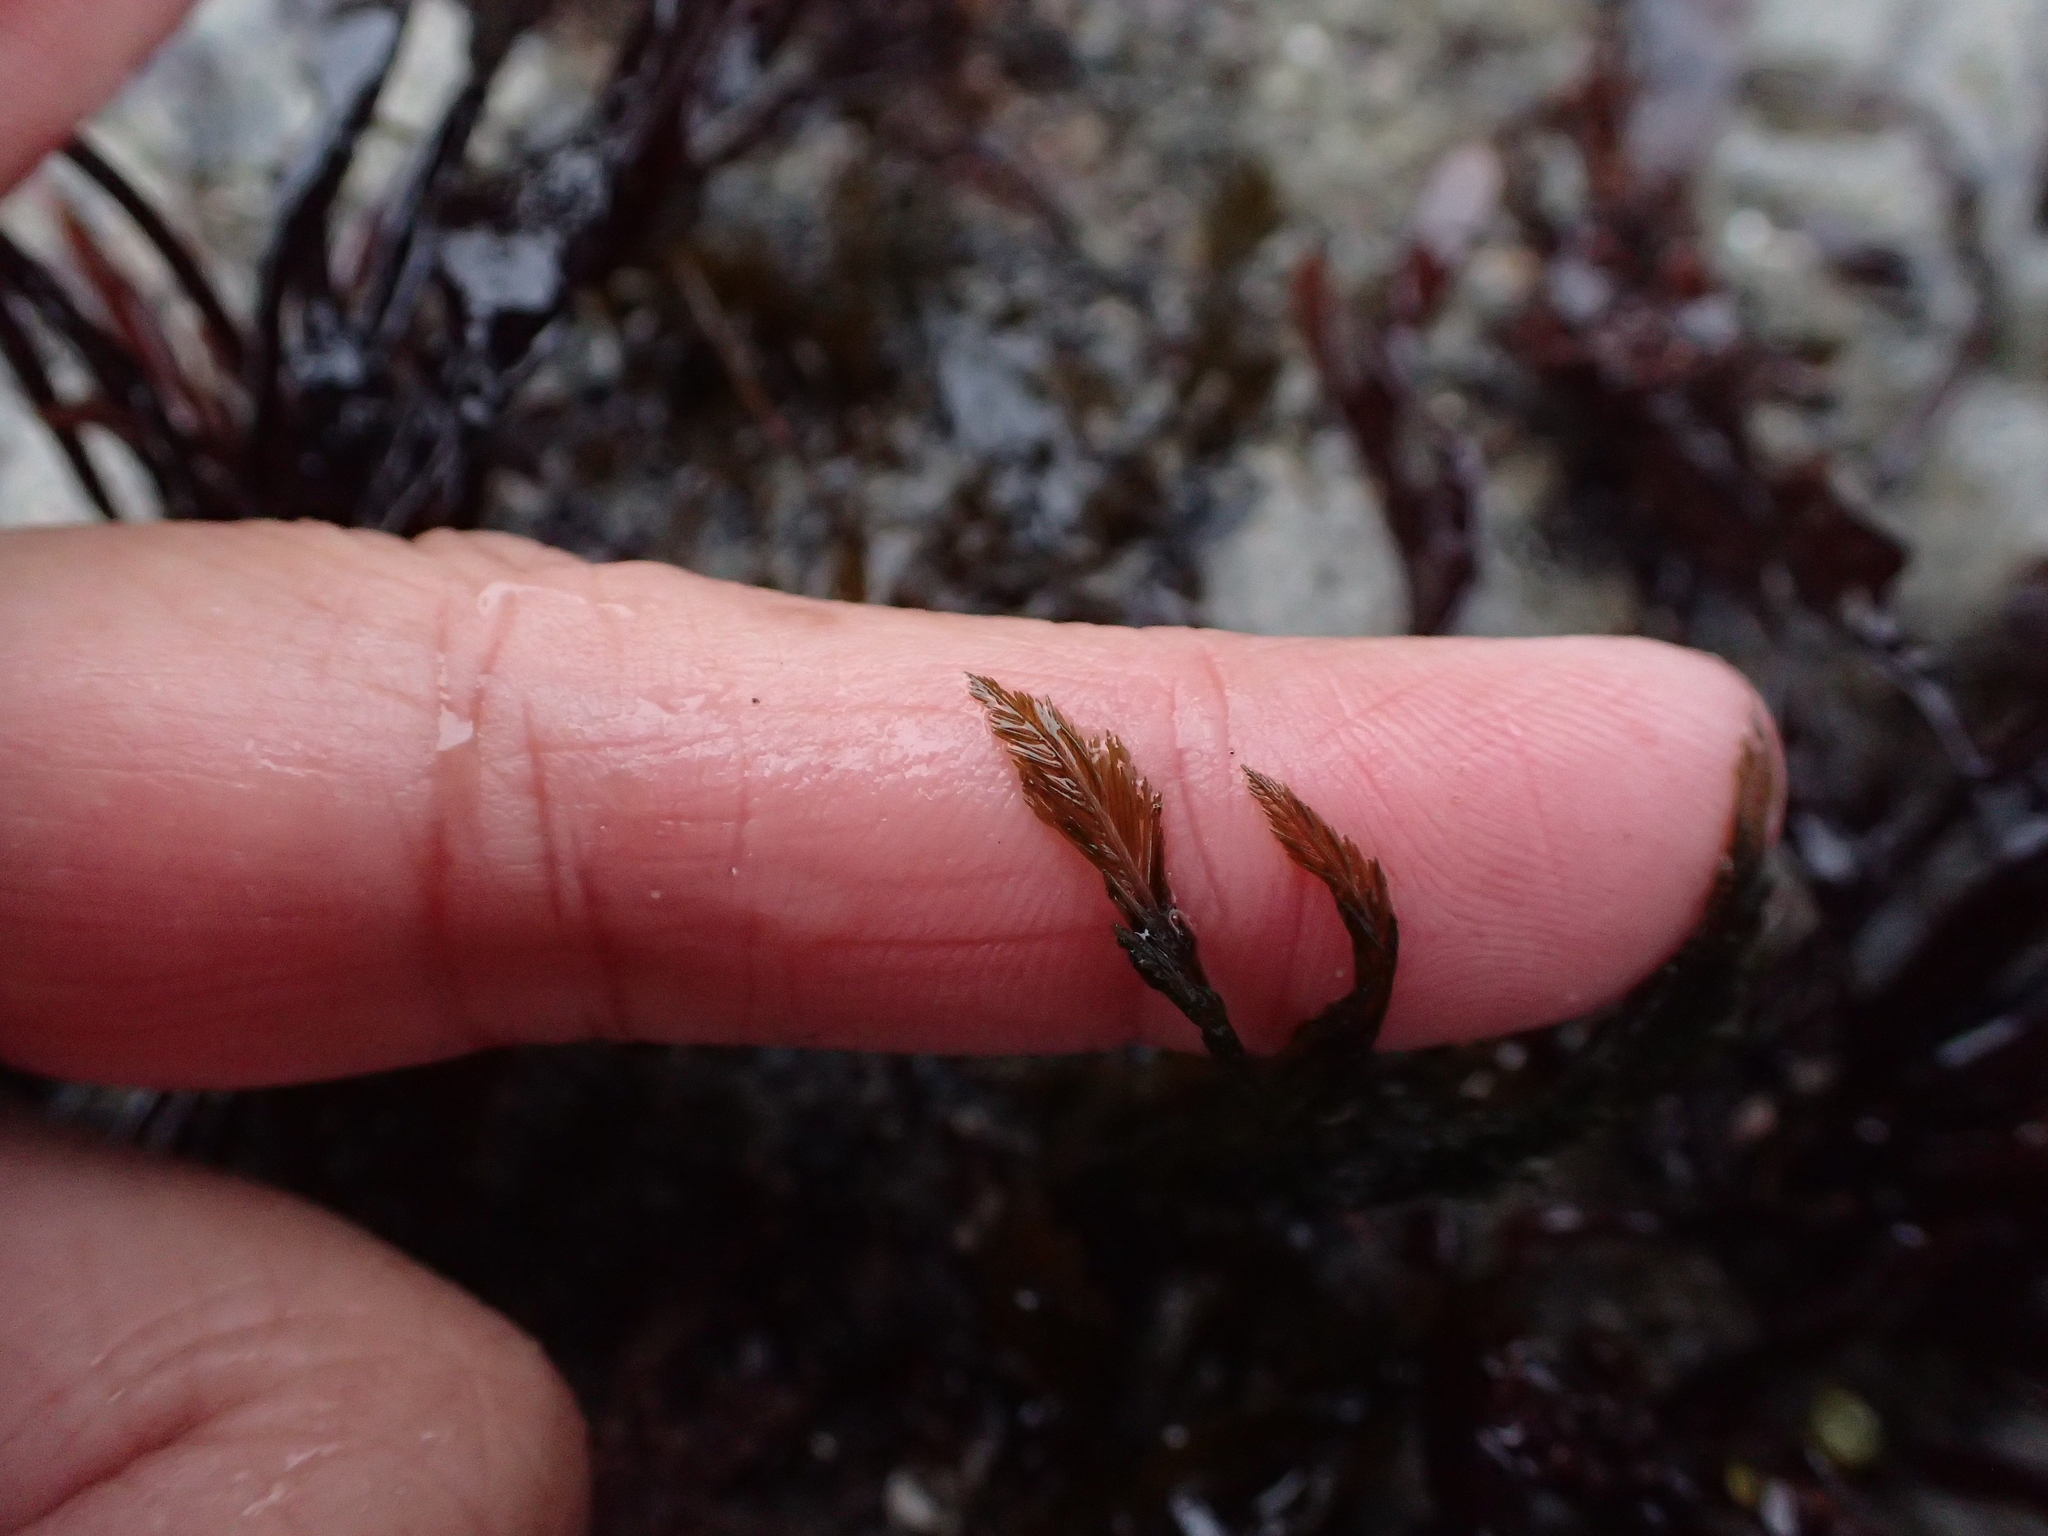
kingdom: Plantae
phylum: Chlorophyta
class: Ulvophyceae
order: Bryopsidales
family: Bryopsidaceae
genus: Bryopsis
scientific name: Bryopsis corticulans
